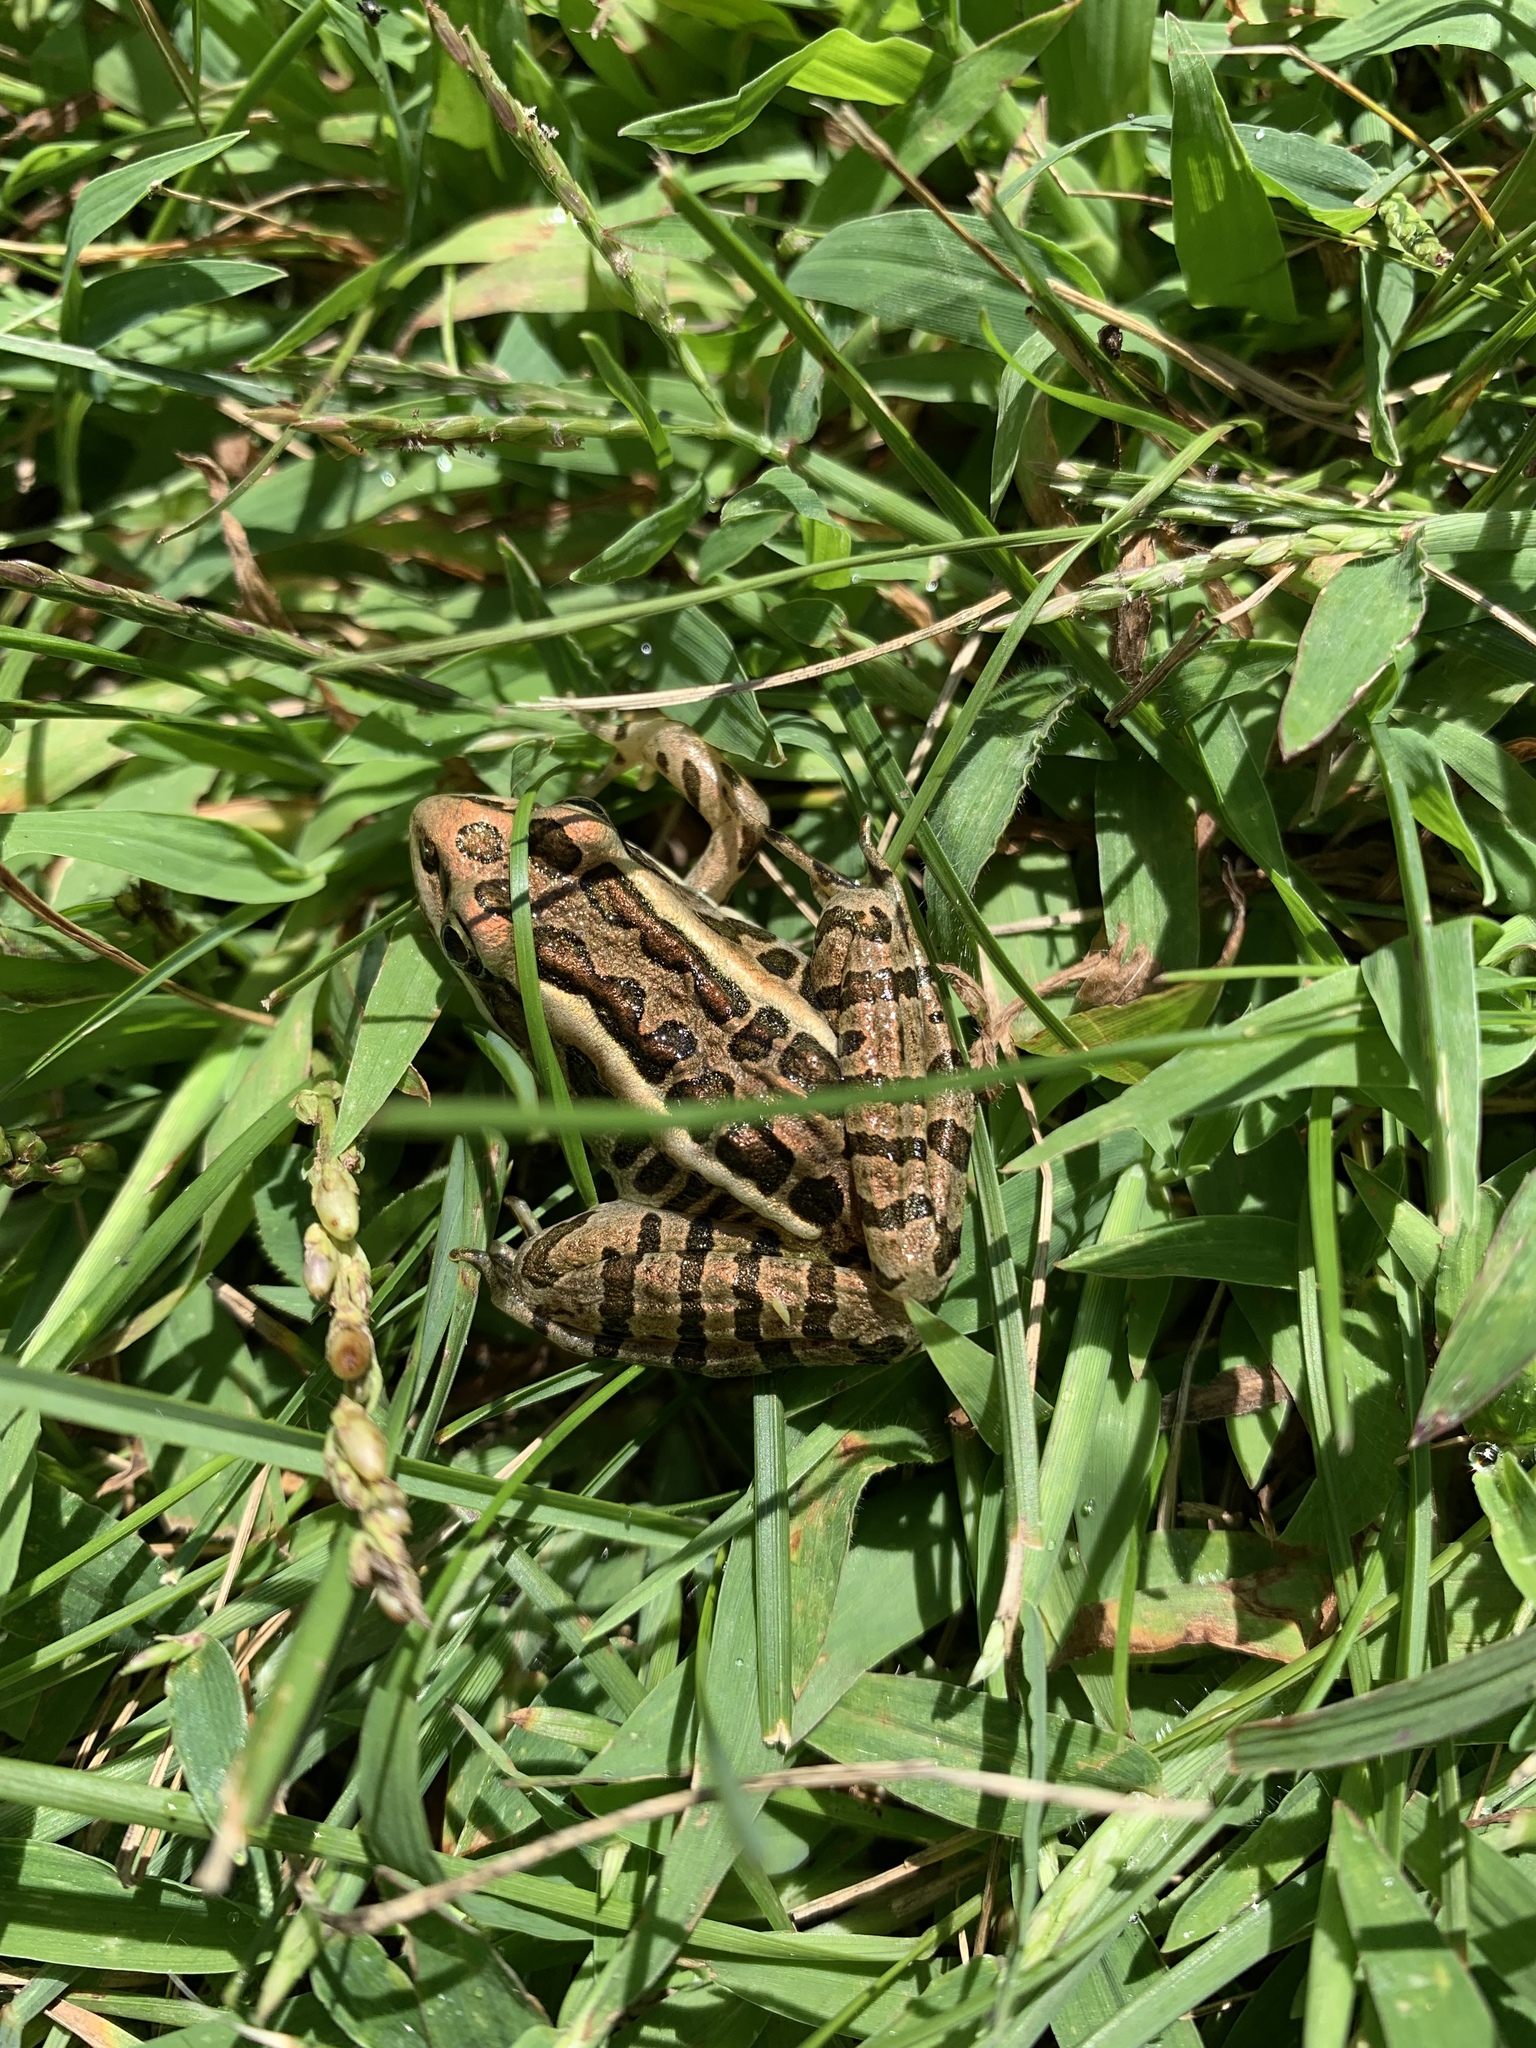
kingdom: Animalia
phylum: Chordata
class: Amphibia
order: Anura
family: Ranidae
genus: Lithobates
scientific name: Lithobates palustris
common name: Pickerel frog
